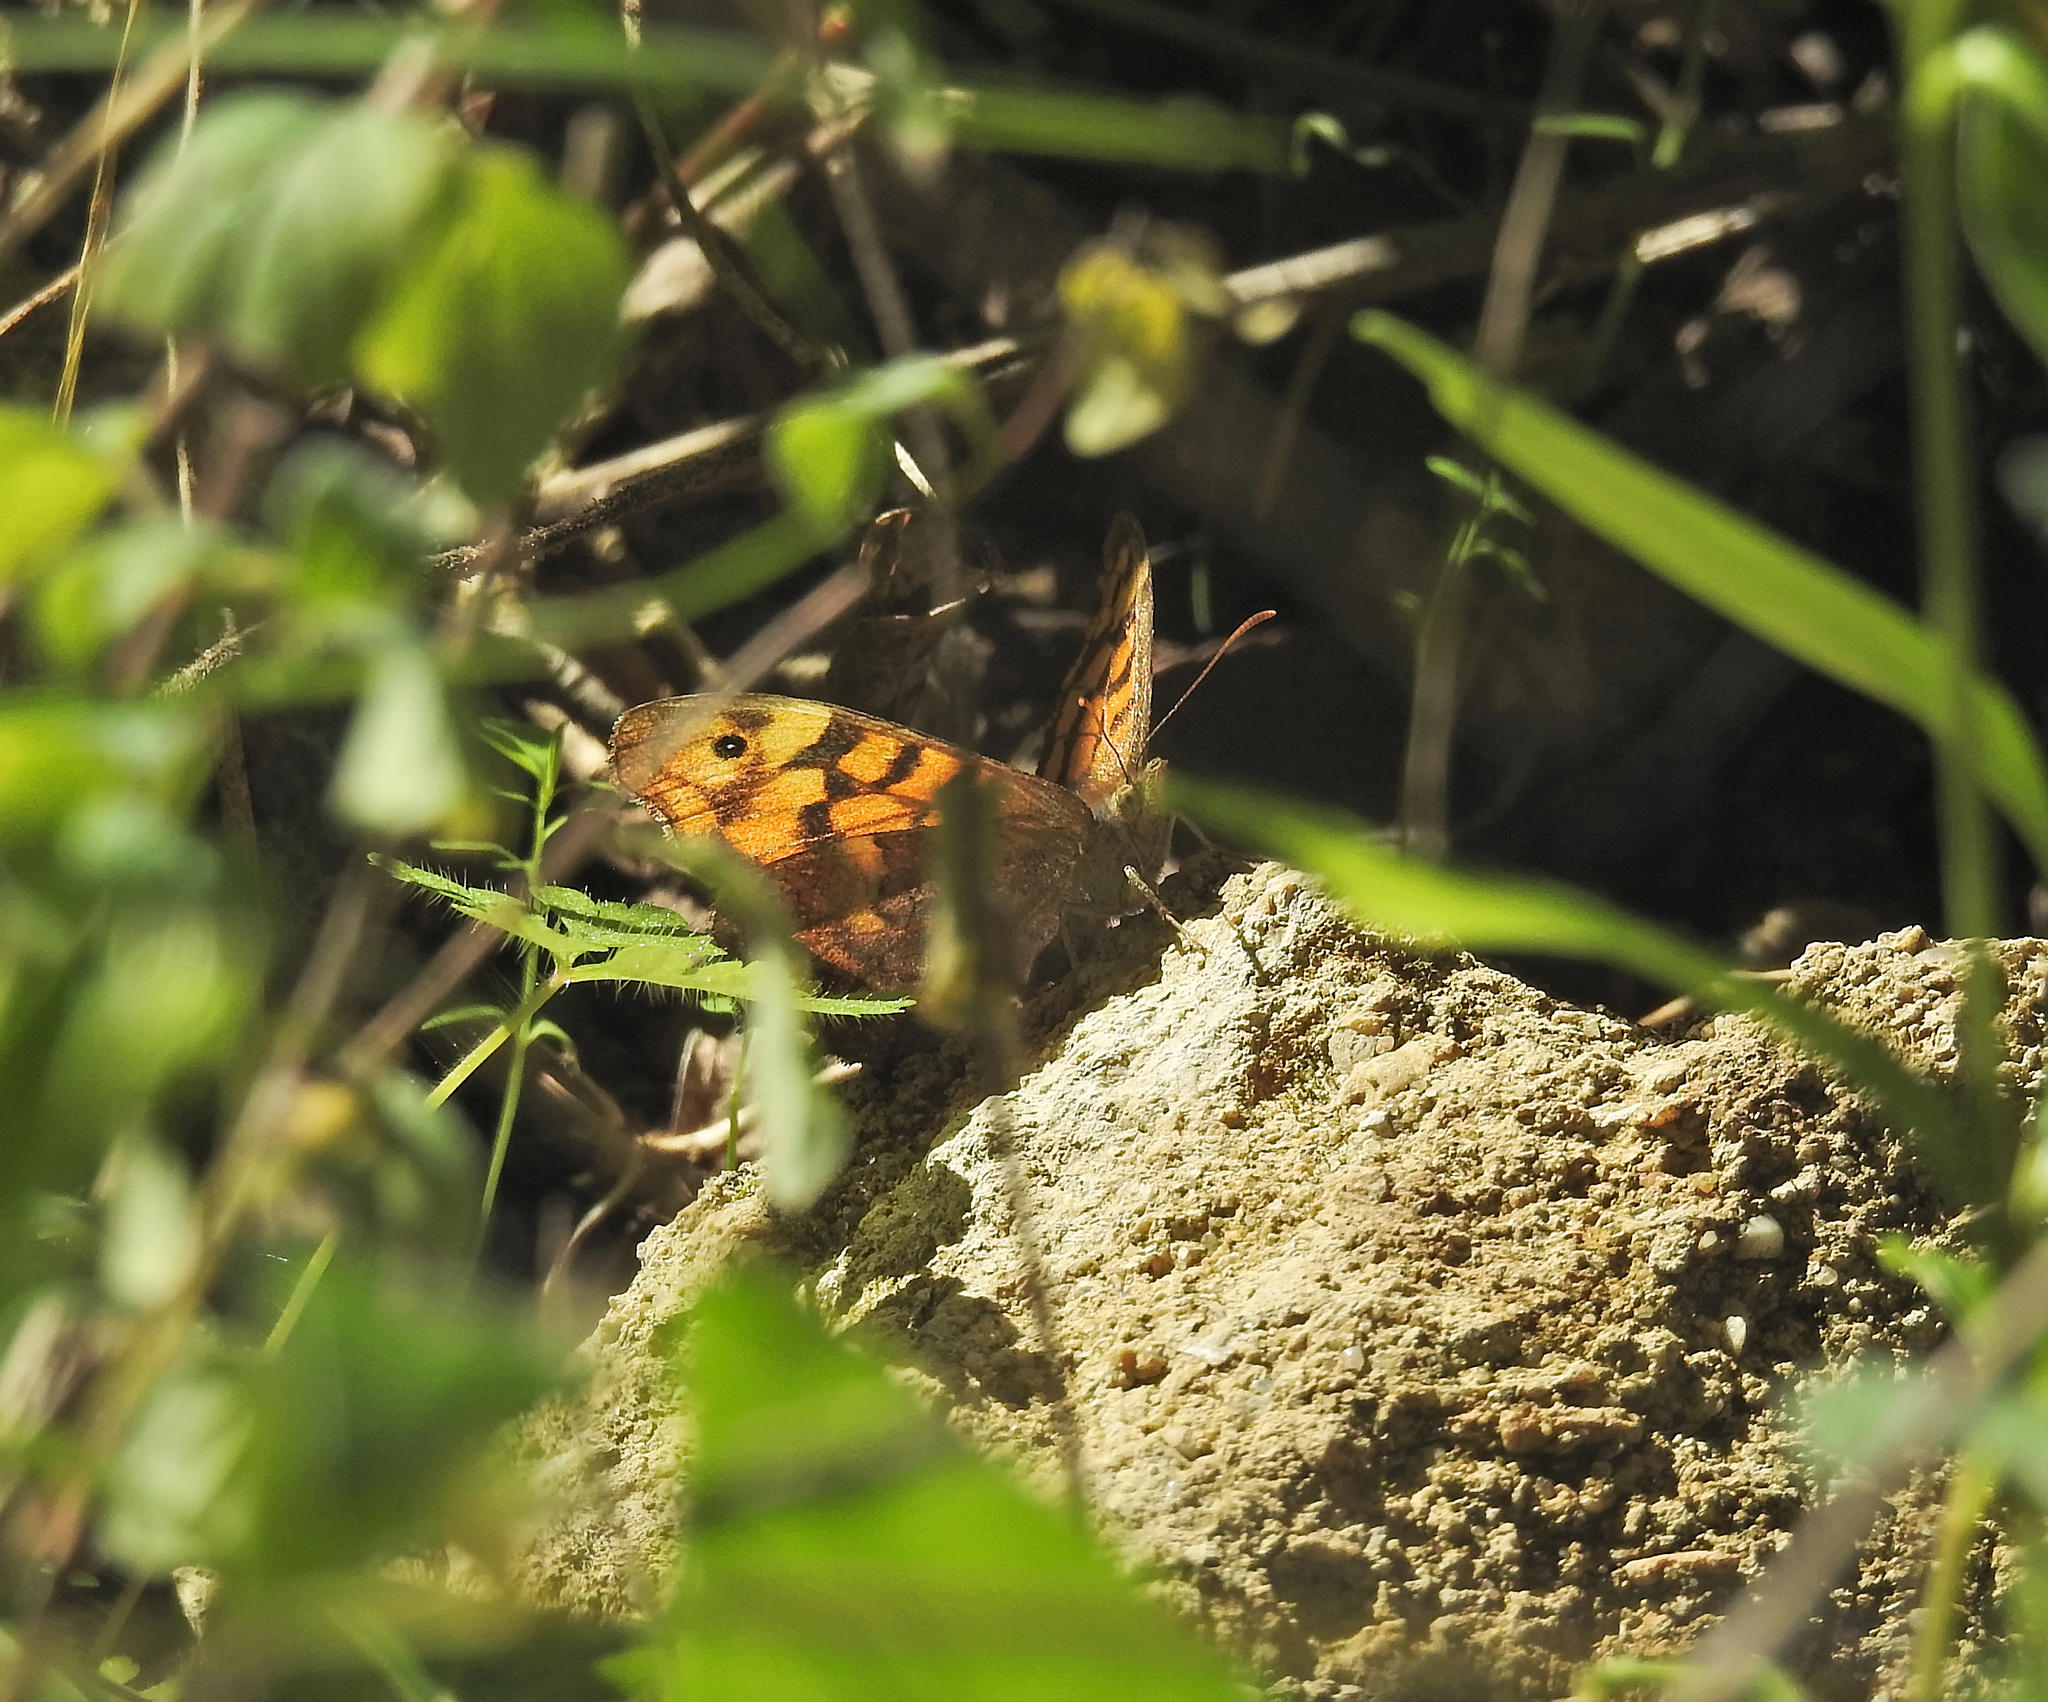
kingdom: Animalia
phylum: Arthropoda
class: Insecta
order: Lepidoptera
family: Nymphalidae
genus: Pararge
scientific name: Pararge aegeria
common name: Speckled wood
